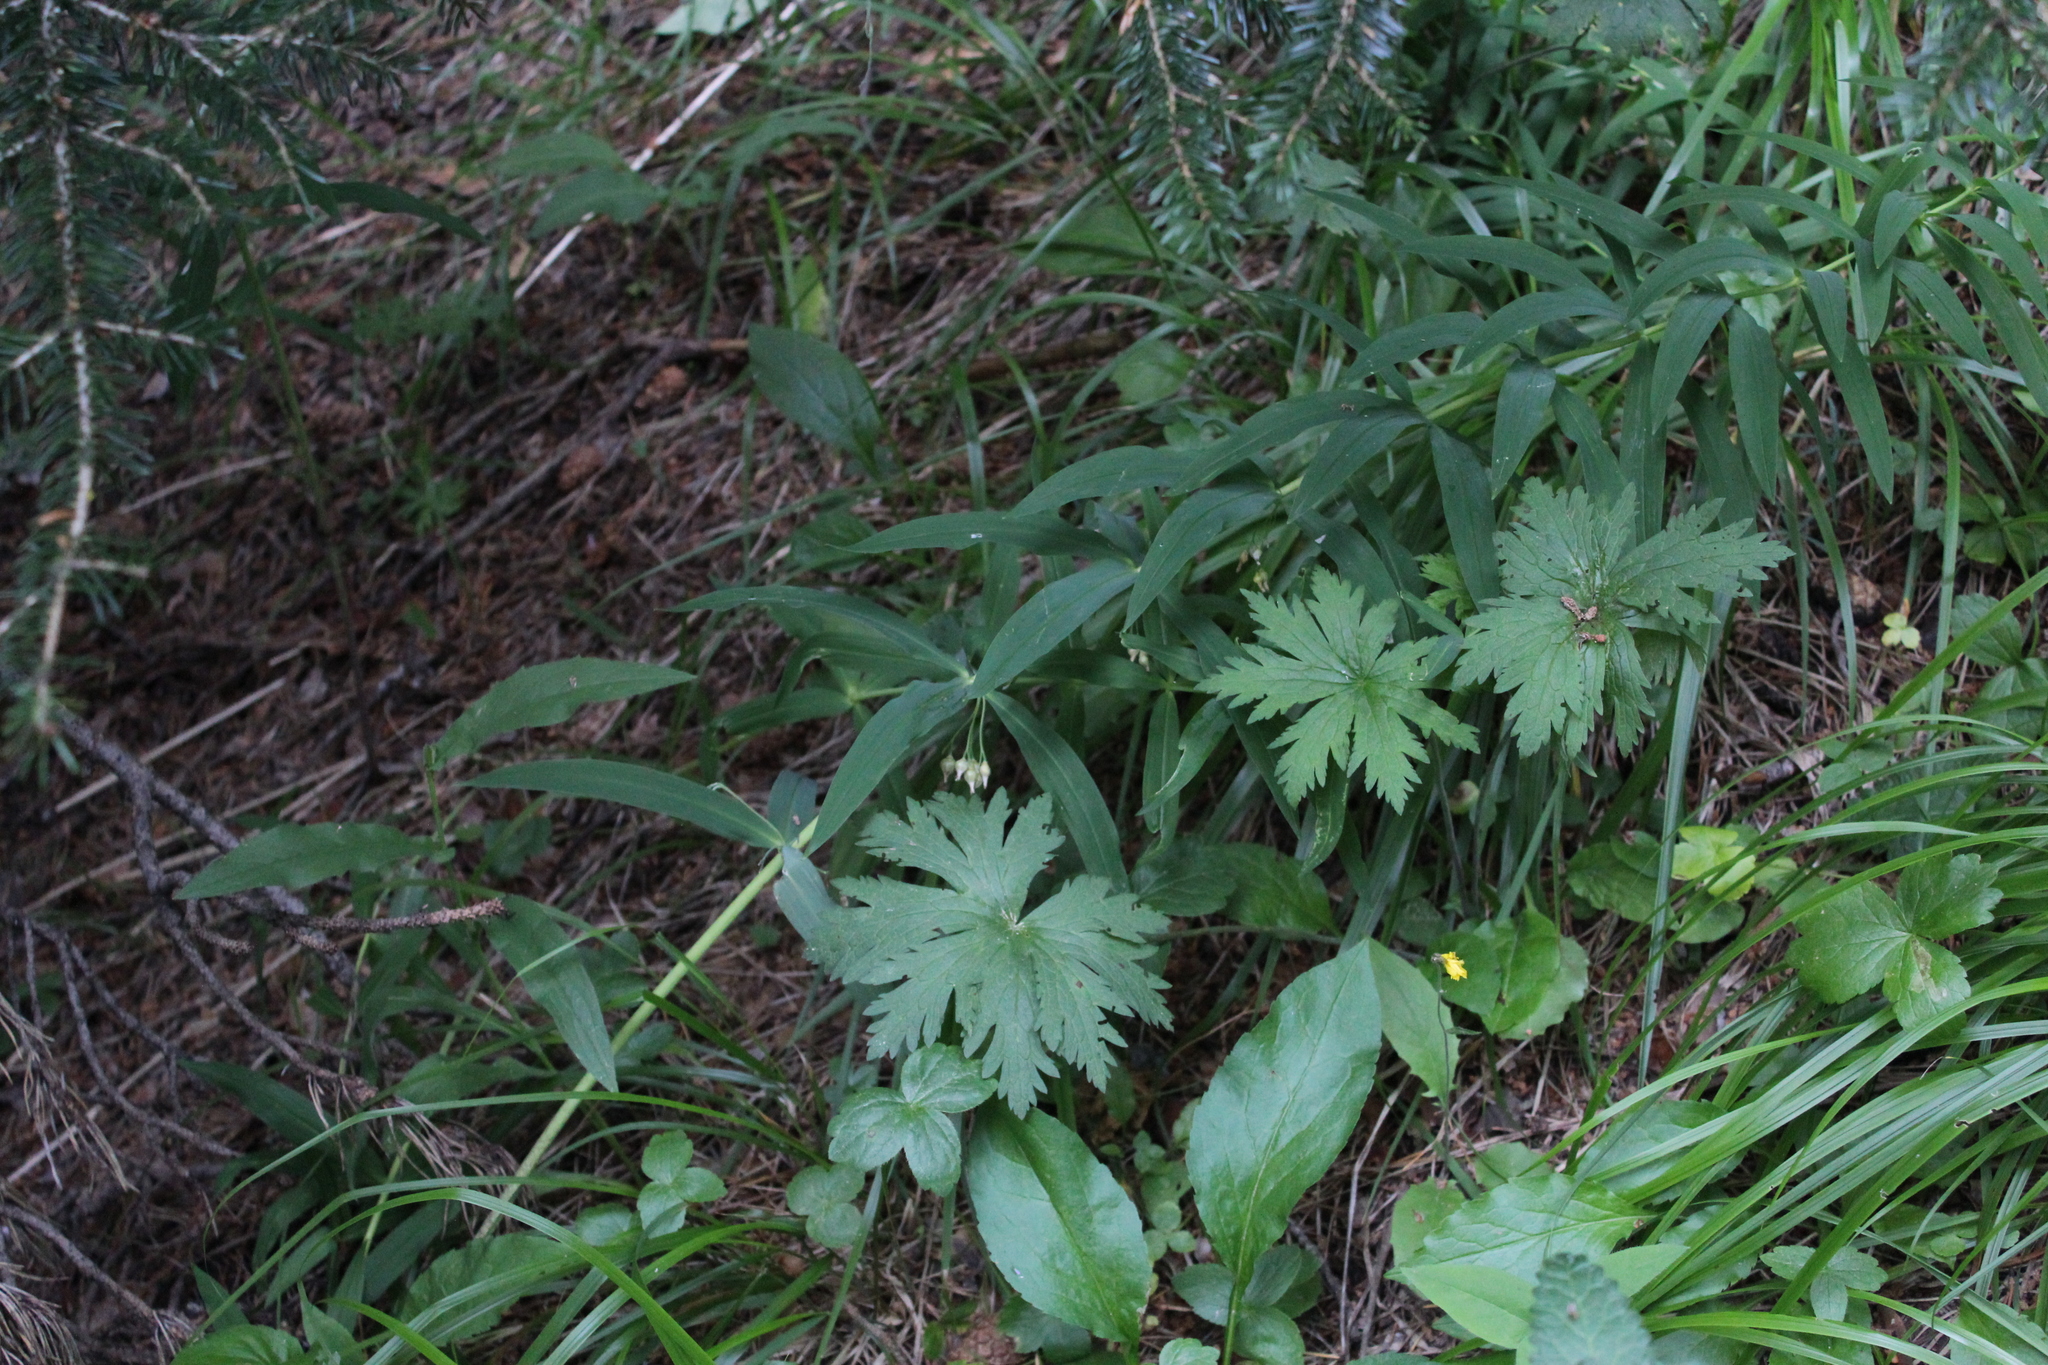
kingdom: Plantae
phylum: Tracheophyta
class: Liliopsida
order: Asparagales
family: Asparagaceae
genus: Polygonatum
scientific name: Polygonatum verticillatum
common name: Whorled solomon's-seal
